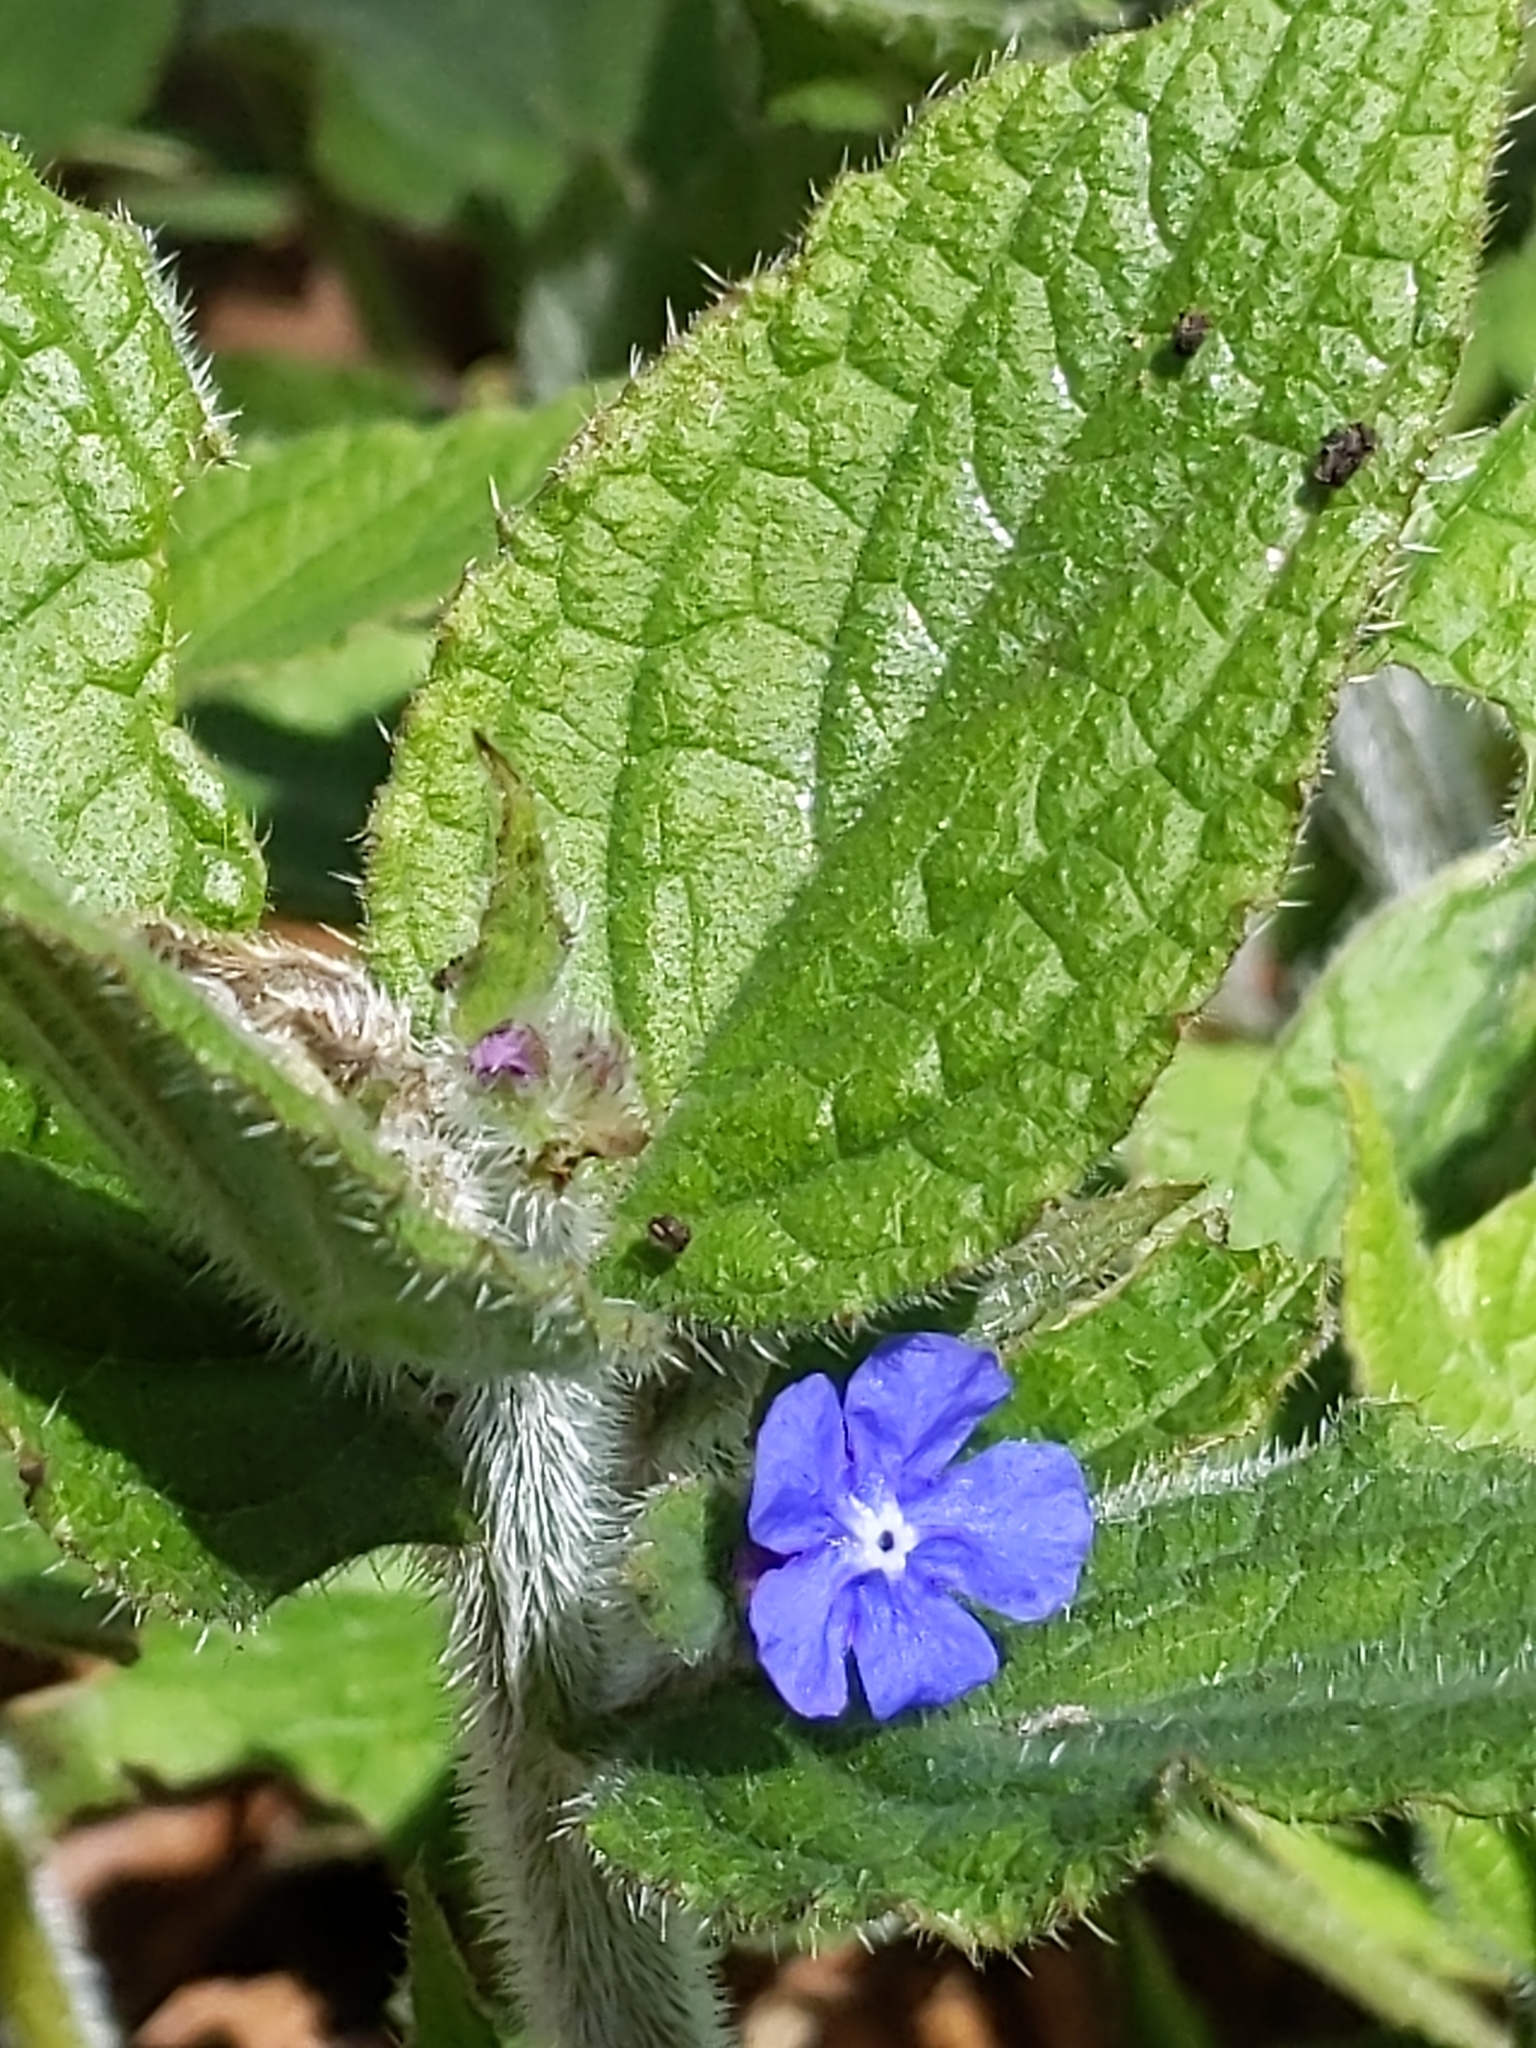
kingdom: Plantae
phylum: Tracheophyta
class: Magnoliopsida
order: Boraginales
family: Boraginaceae
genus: Pentaglottis
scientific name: Pentaglottis sempervirens
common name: Green alkanet
